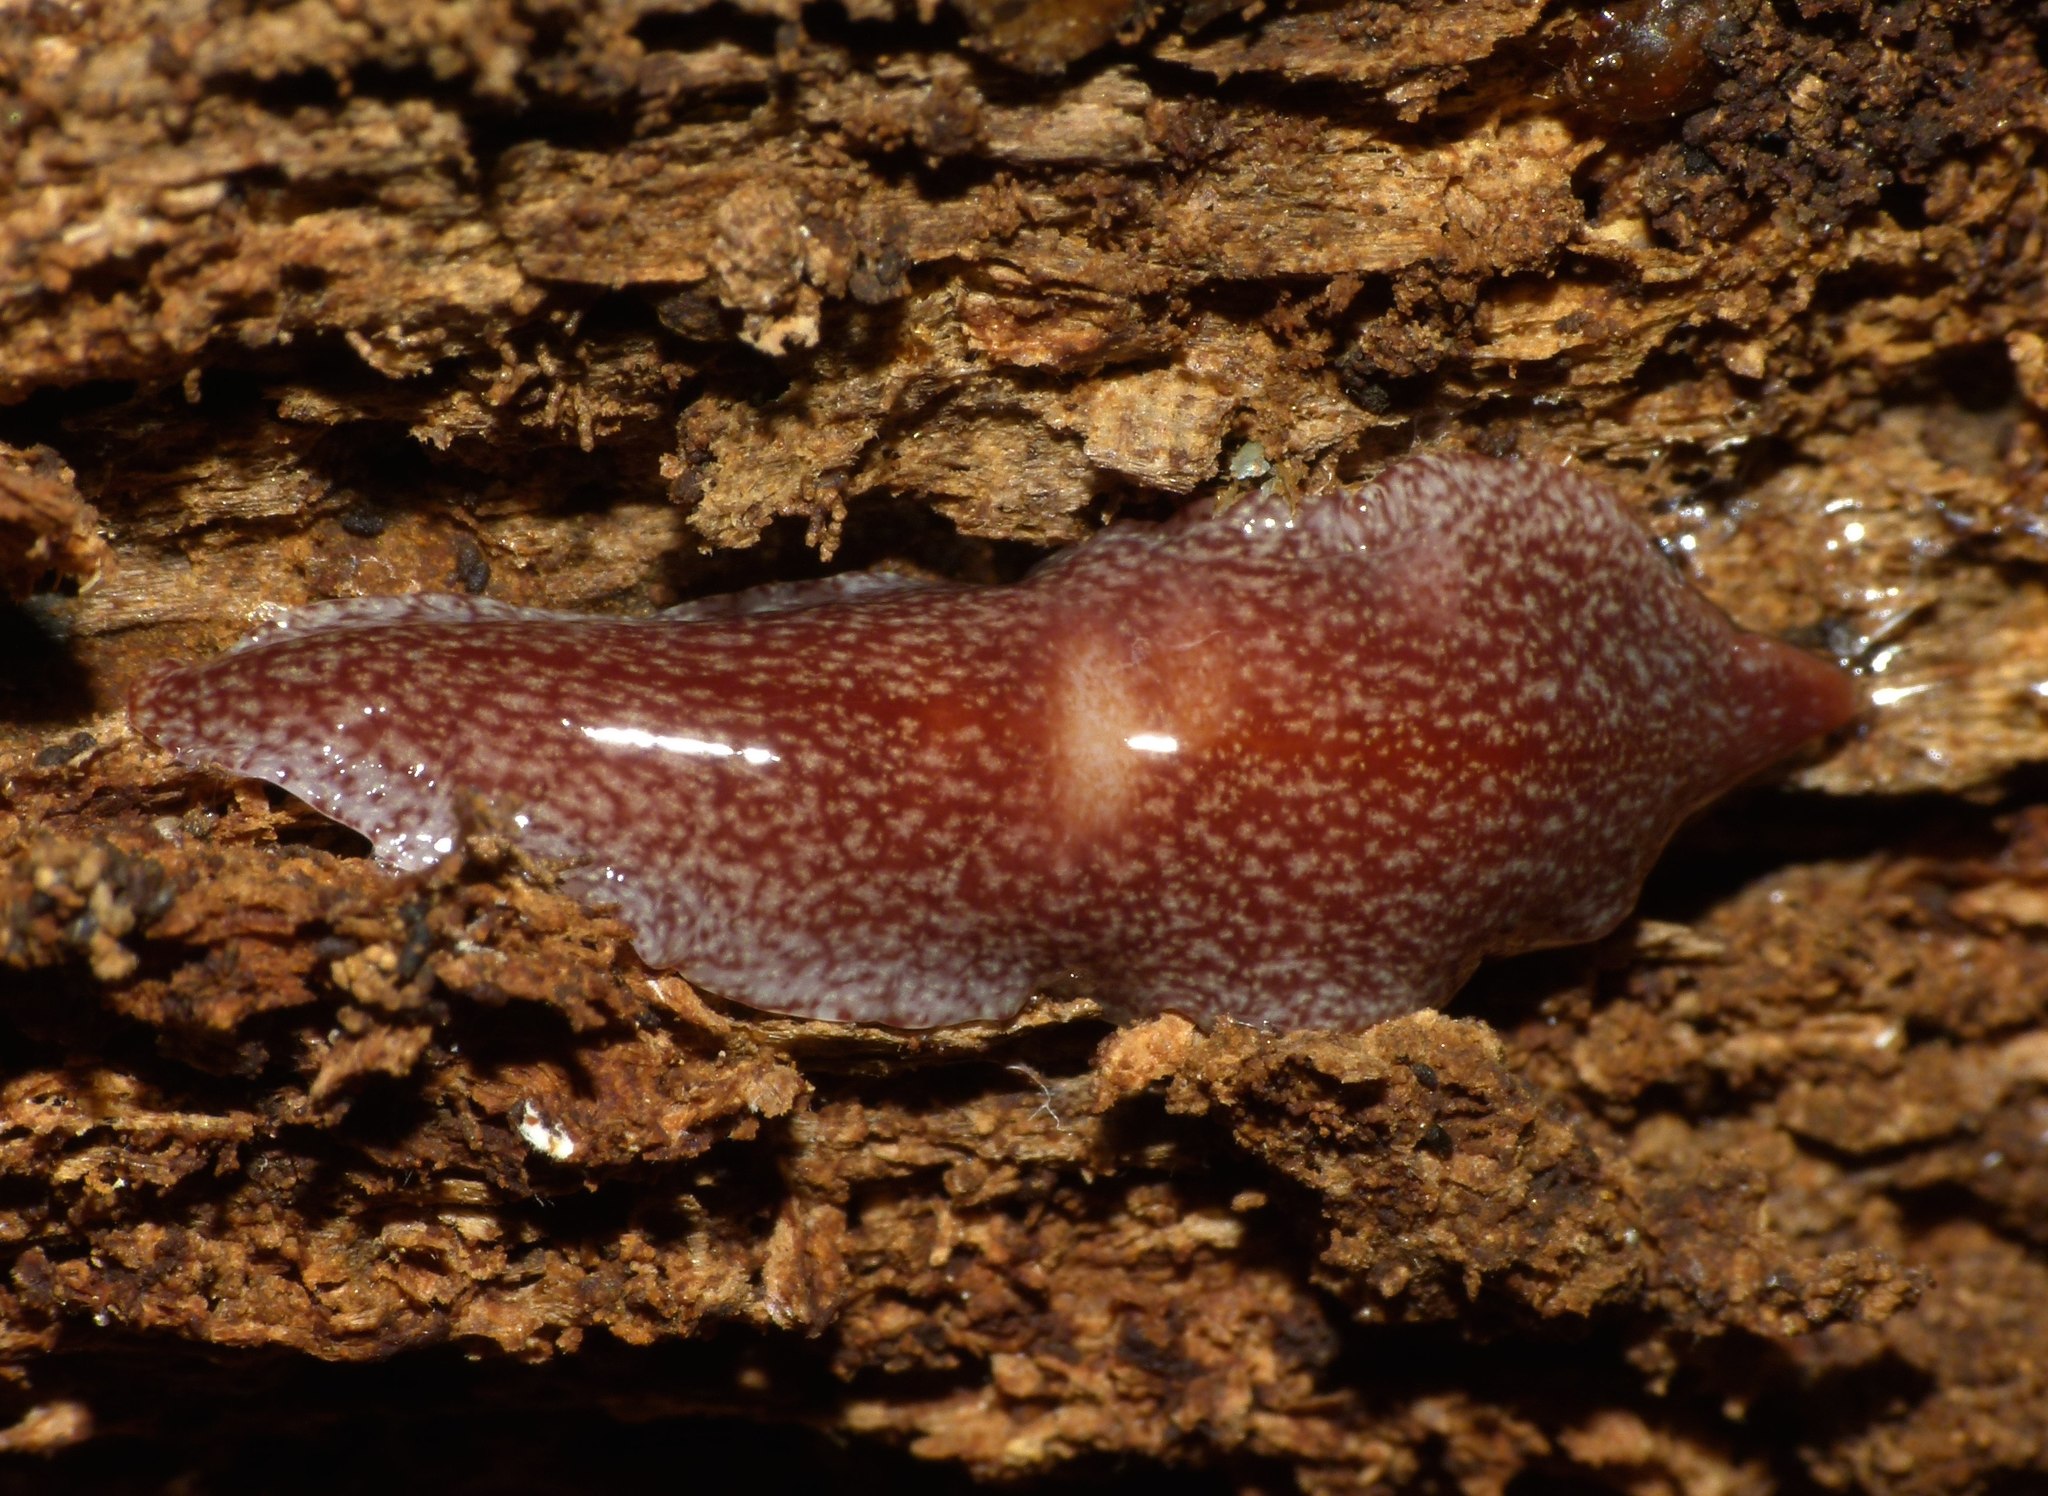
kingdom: Animalia
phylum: Platyhelminthes
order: Tricladida
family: Geoplanidae
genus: Australopacifica
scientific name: Australopacifica spectabilis
